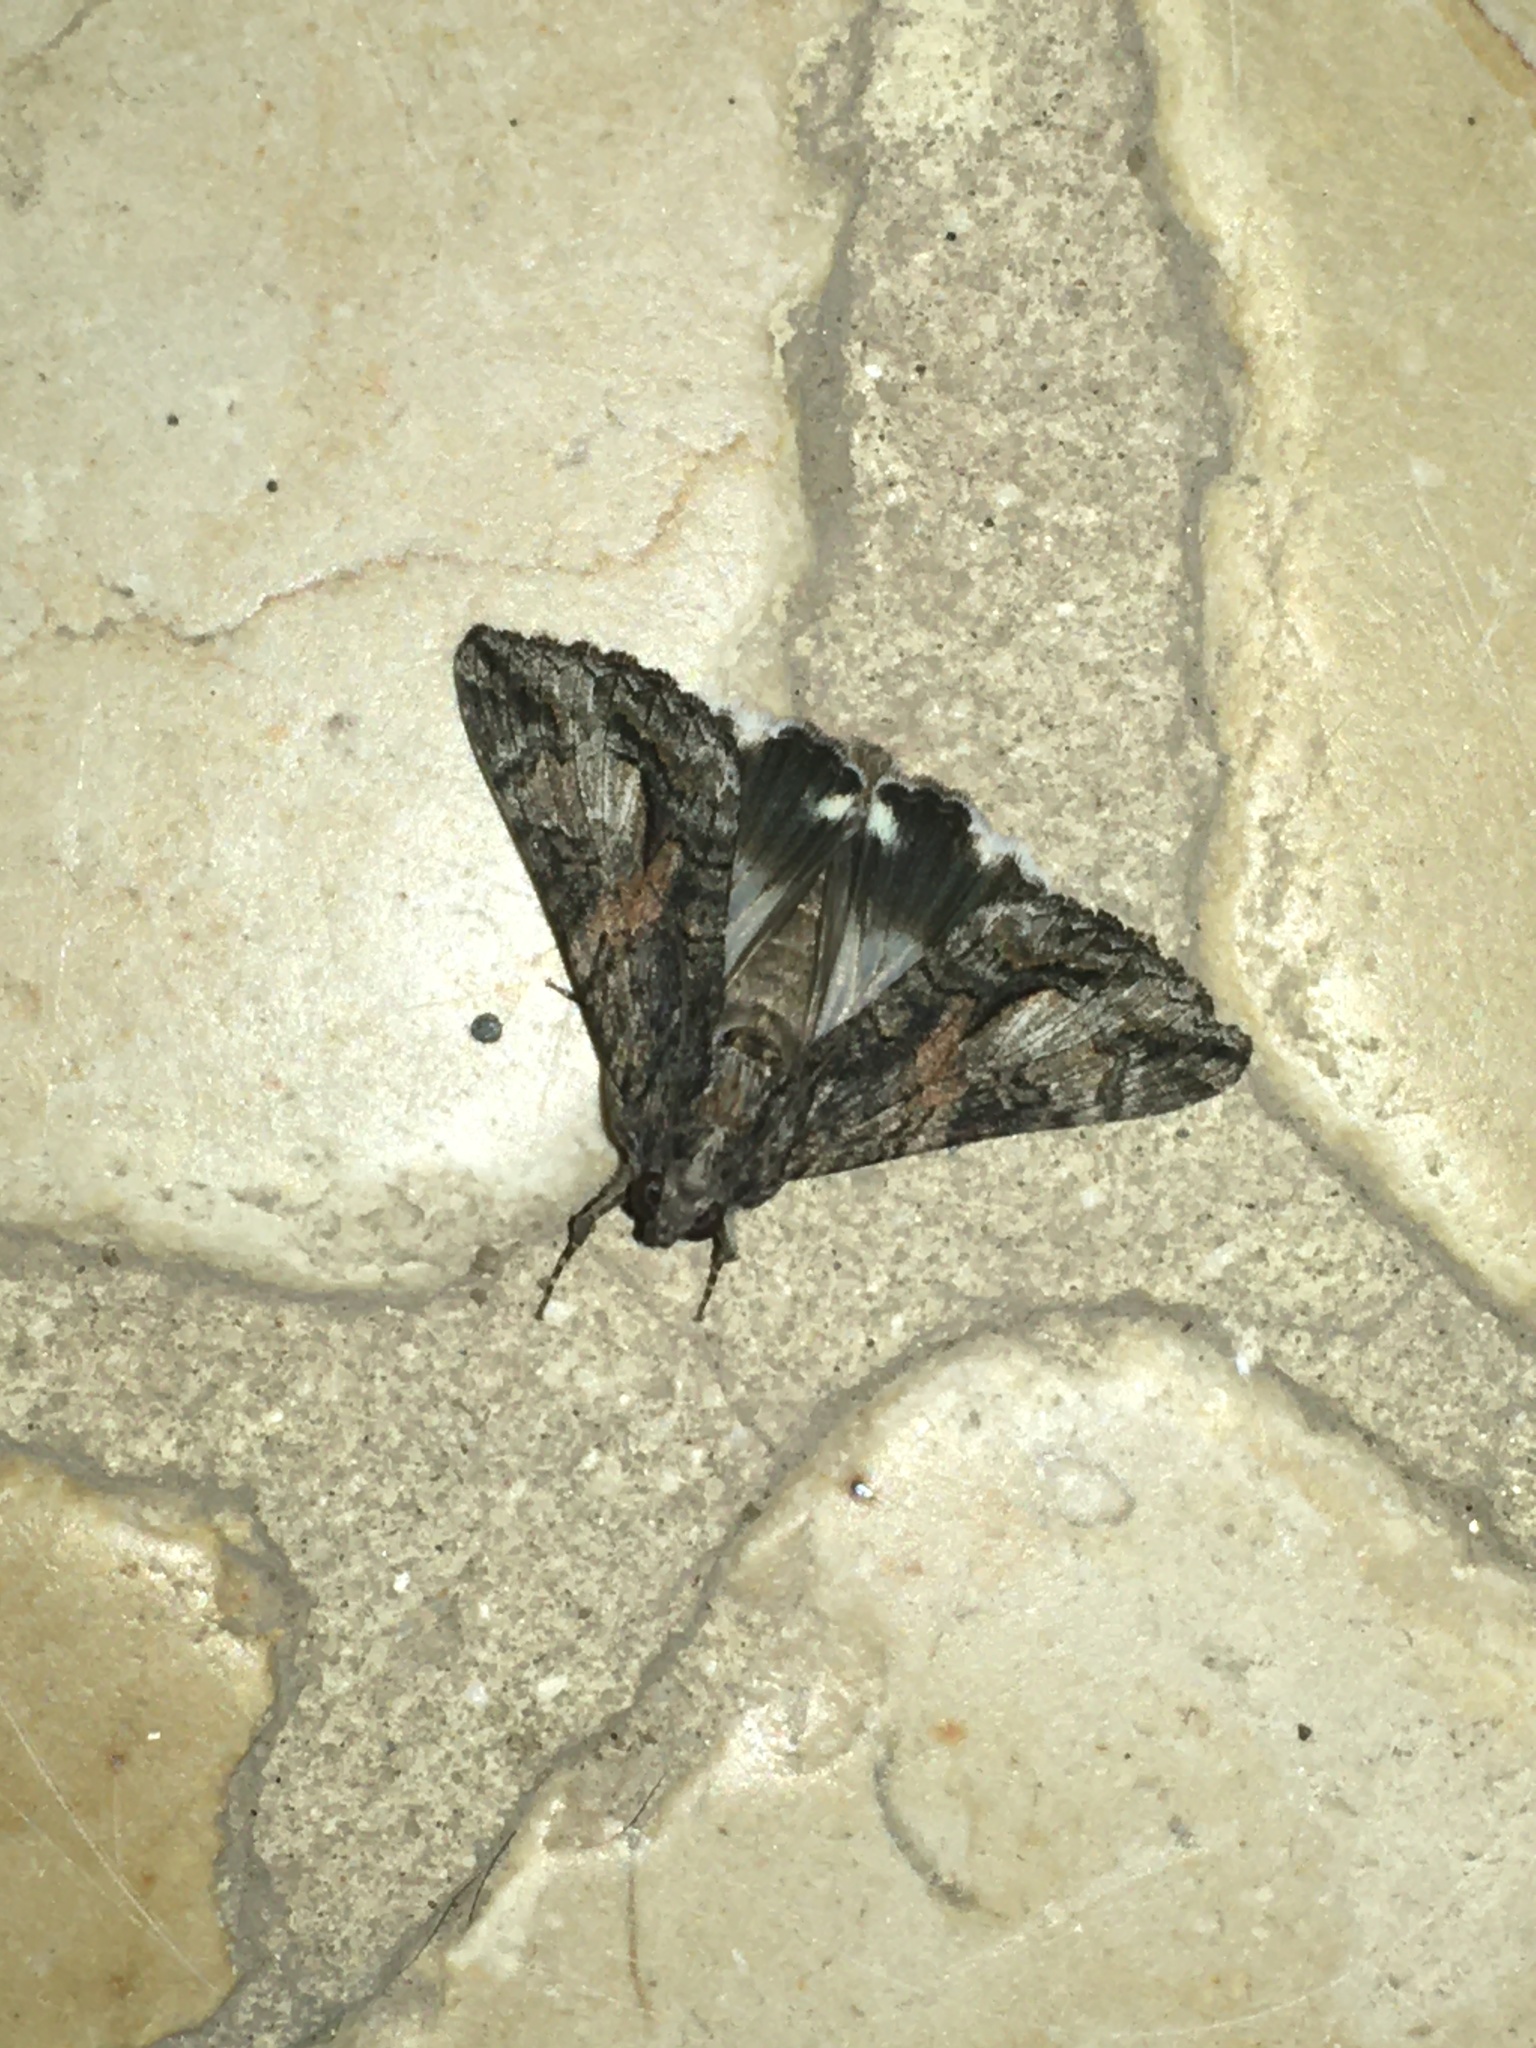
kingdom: Animalia
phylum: Arthropoda
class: Insecta
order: Lepidoptera
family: Erebidae
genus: Melipotis
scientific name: Melipotis jucunda
